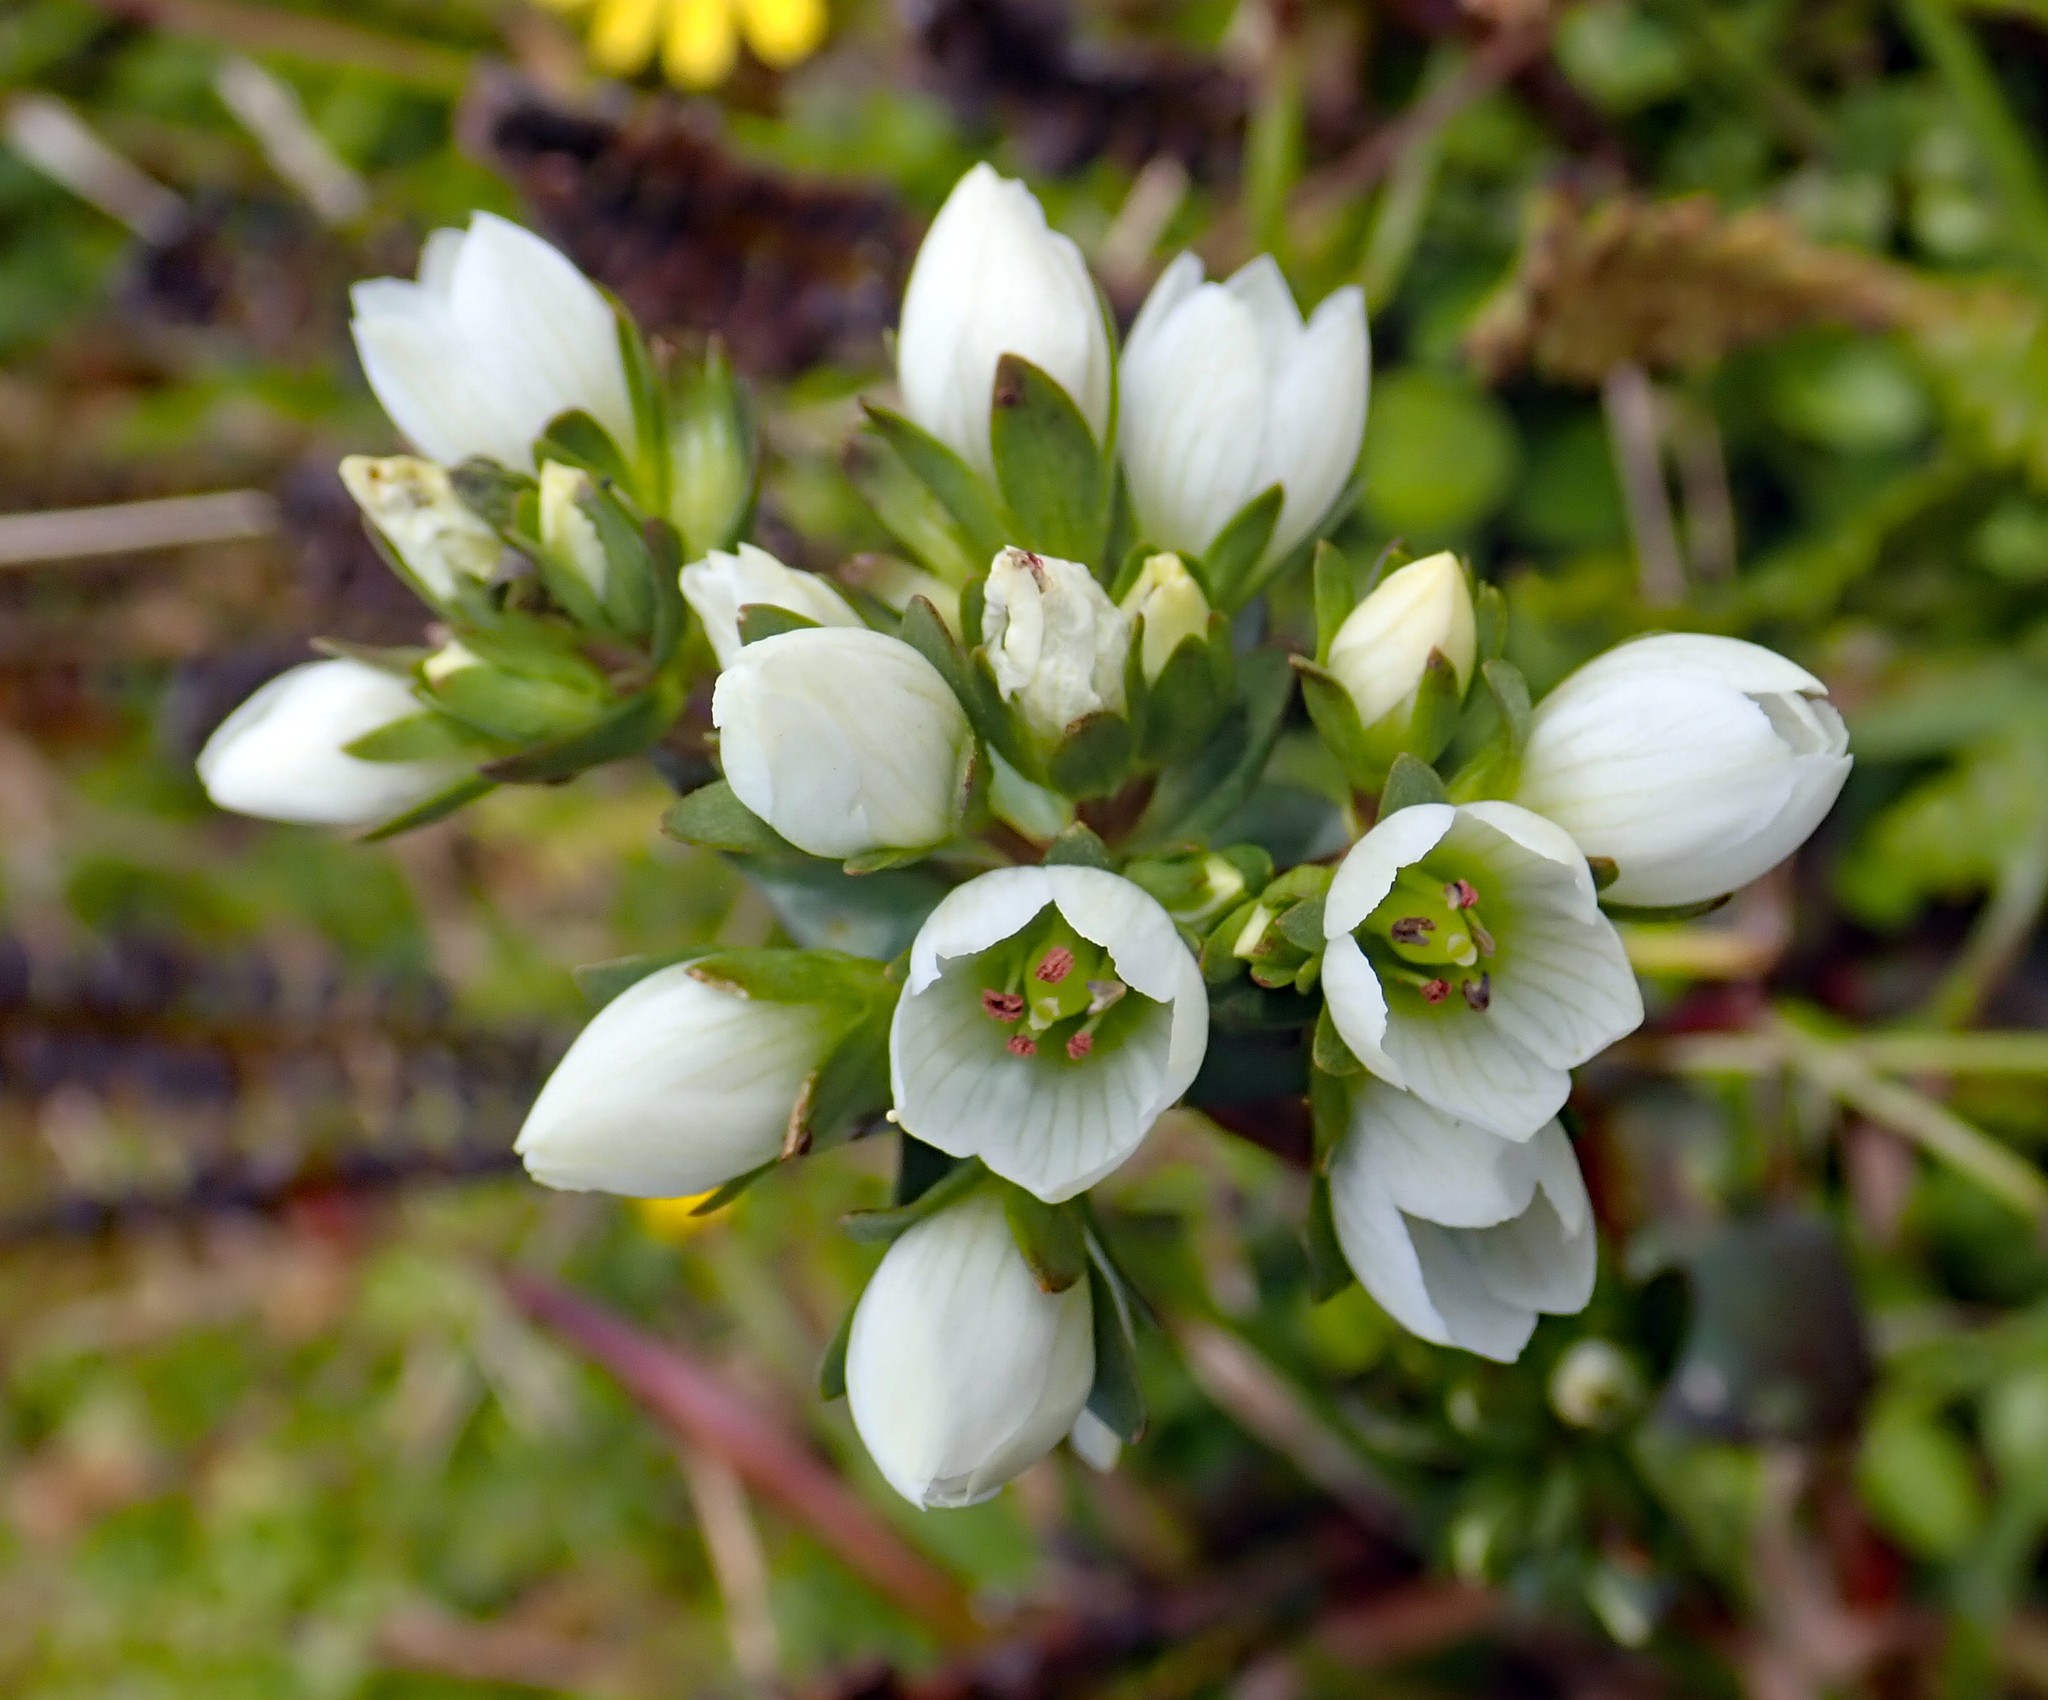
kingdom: Plantae
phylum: Tracheophyta
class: Magnoliopsida
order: Gentianales
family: Gentianaceae
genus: Gentianella
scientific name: Gentianella chathamica
